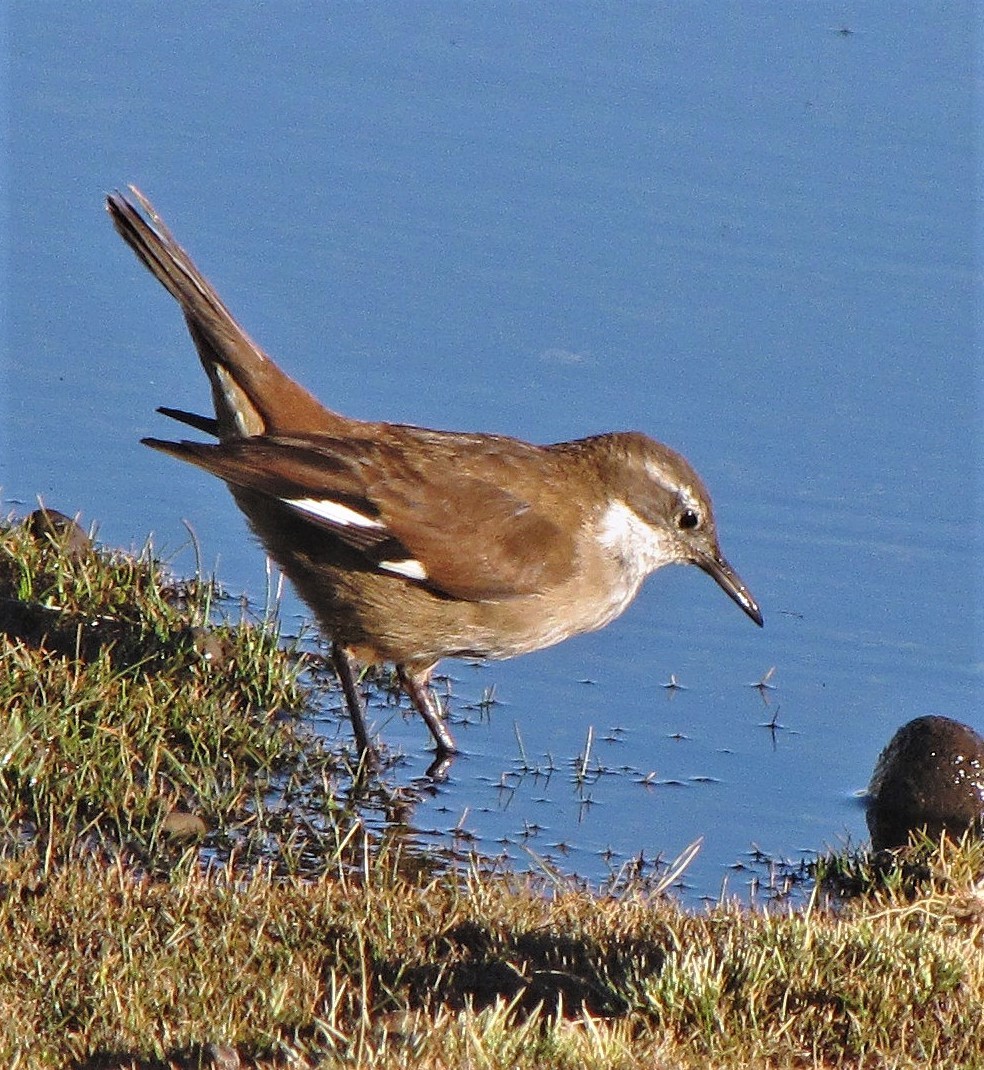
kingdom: Animalia
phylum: Chordata
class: Aves
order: Passeriformes
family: Furnariidae
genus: Cinclodes
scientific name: Cinclodes atacamensis
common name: White-winged cinclodes
